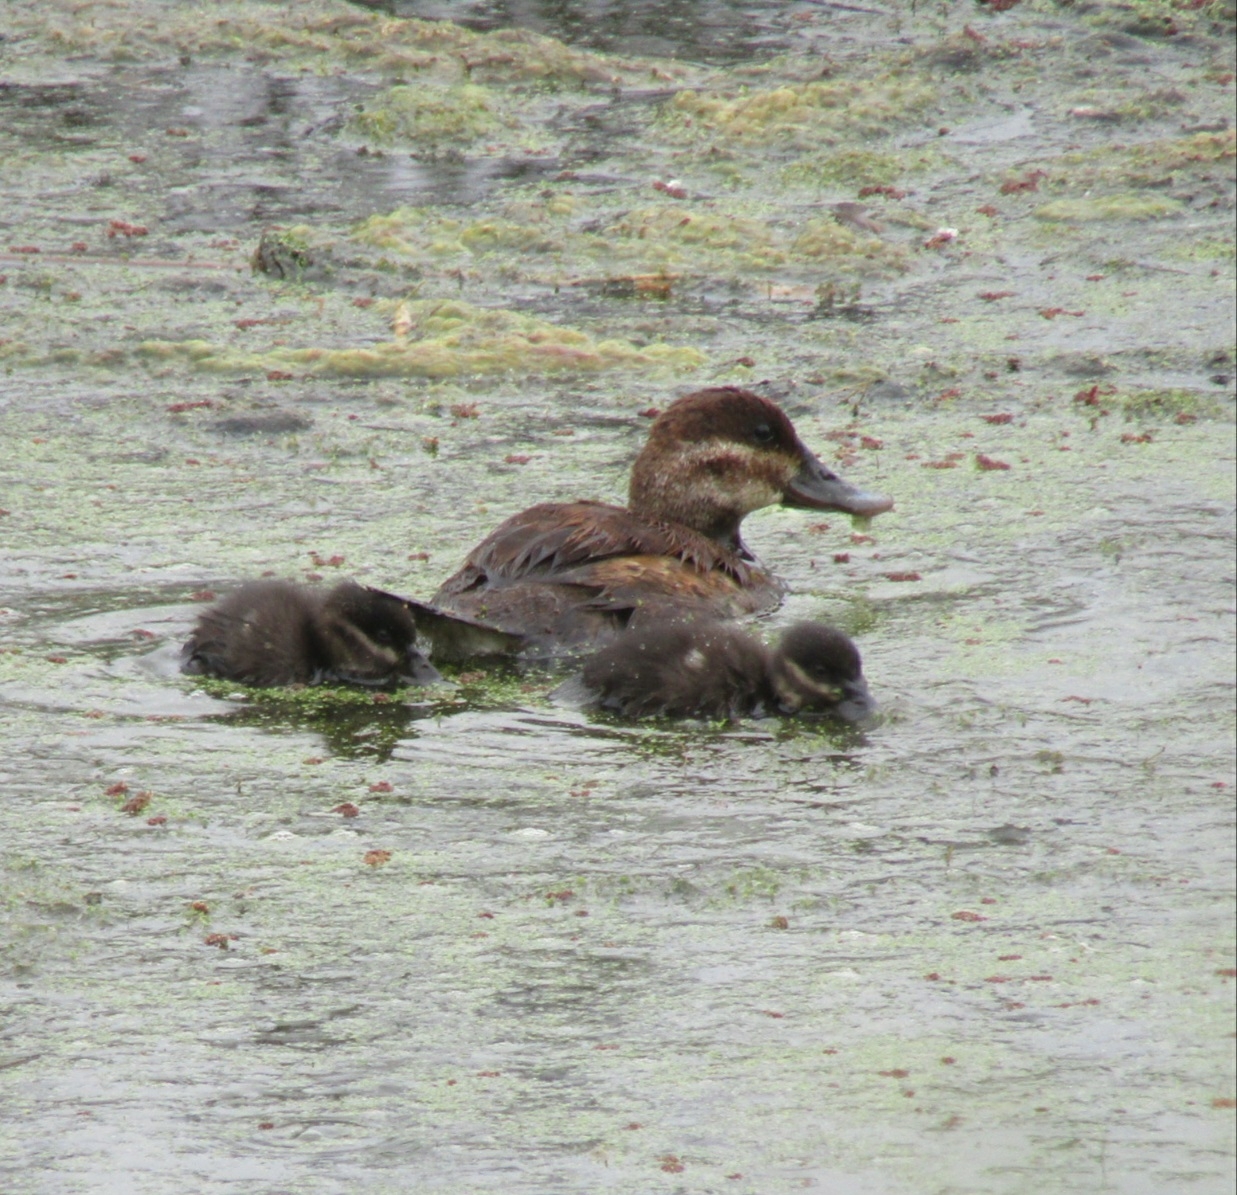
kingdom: Animalia
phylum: Chordata
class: Aves
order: Anseriformes
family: Anatidae
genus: Oxyura
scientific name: Oxyura jamaicensis
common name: Ruddy duck
